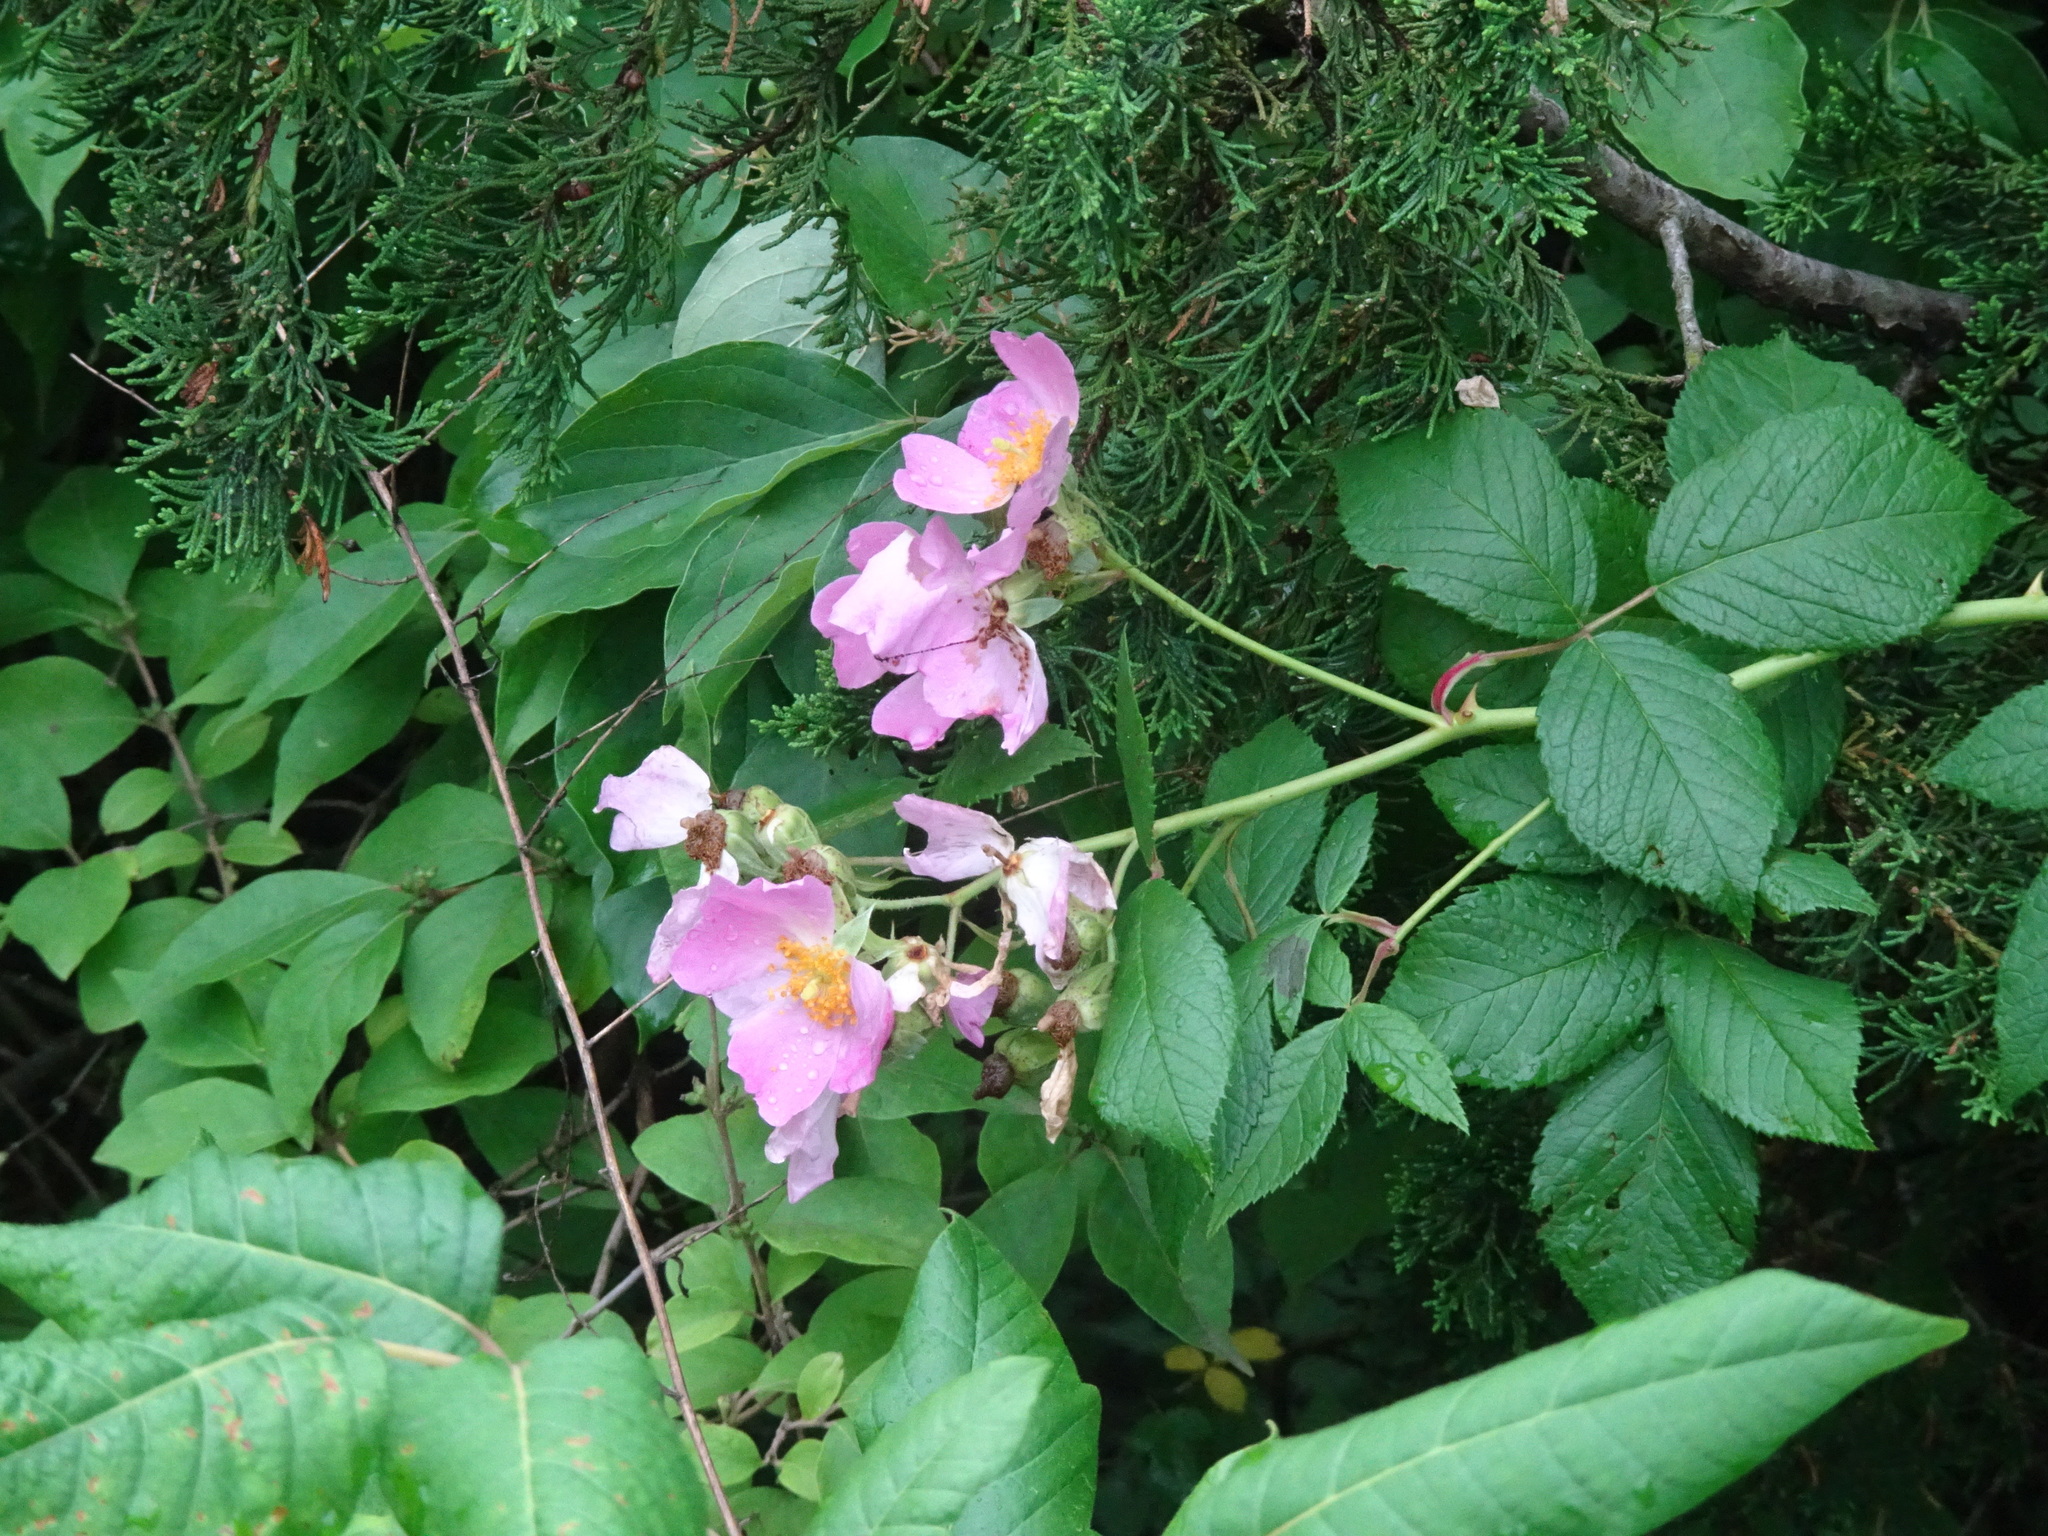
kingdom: Plantae
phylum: Tracheophyta
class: Magnoliopsida
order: Rosales
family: Rosaceae
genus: Rosa
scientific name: Rosa setigera
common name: Prairie rose
